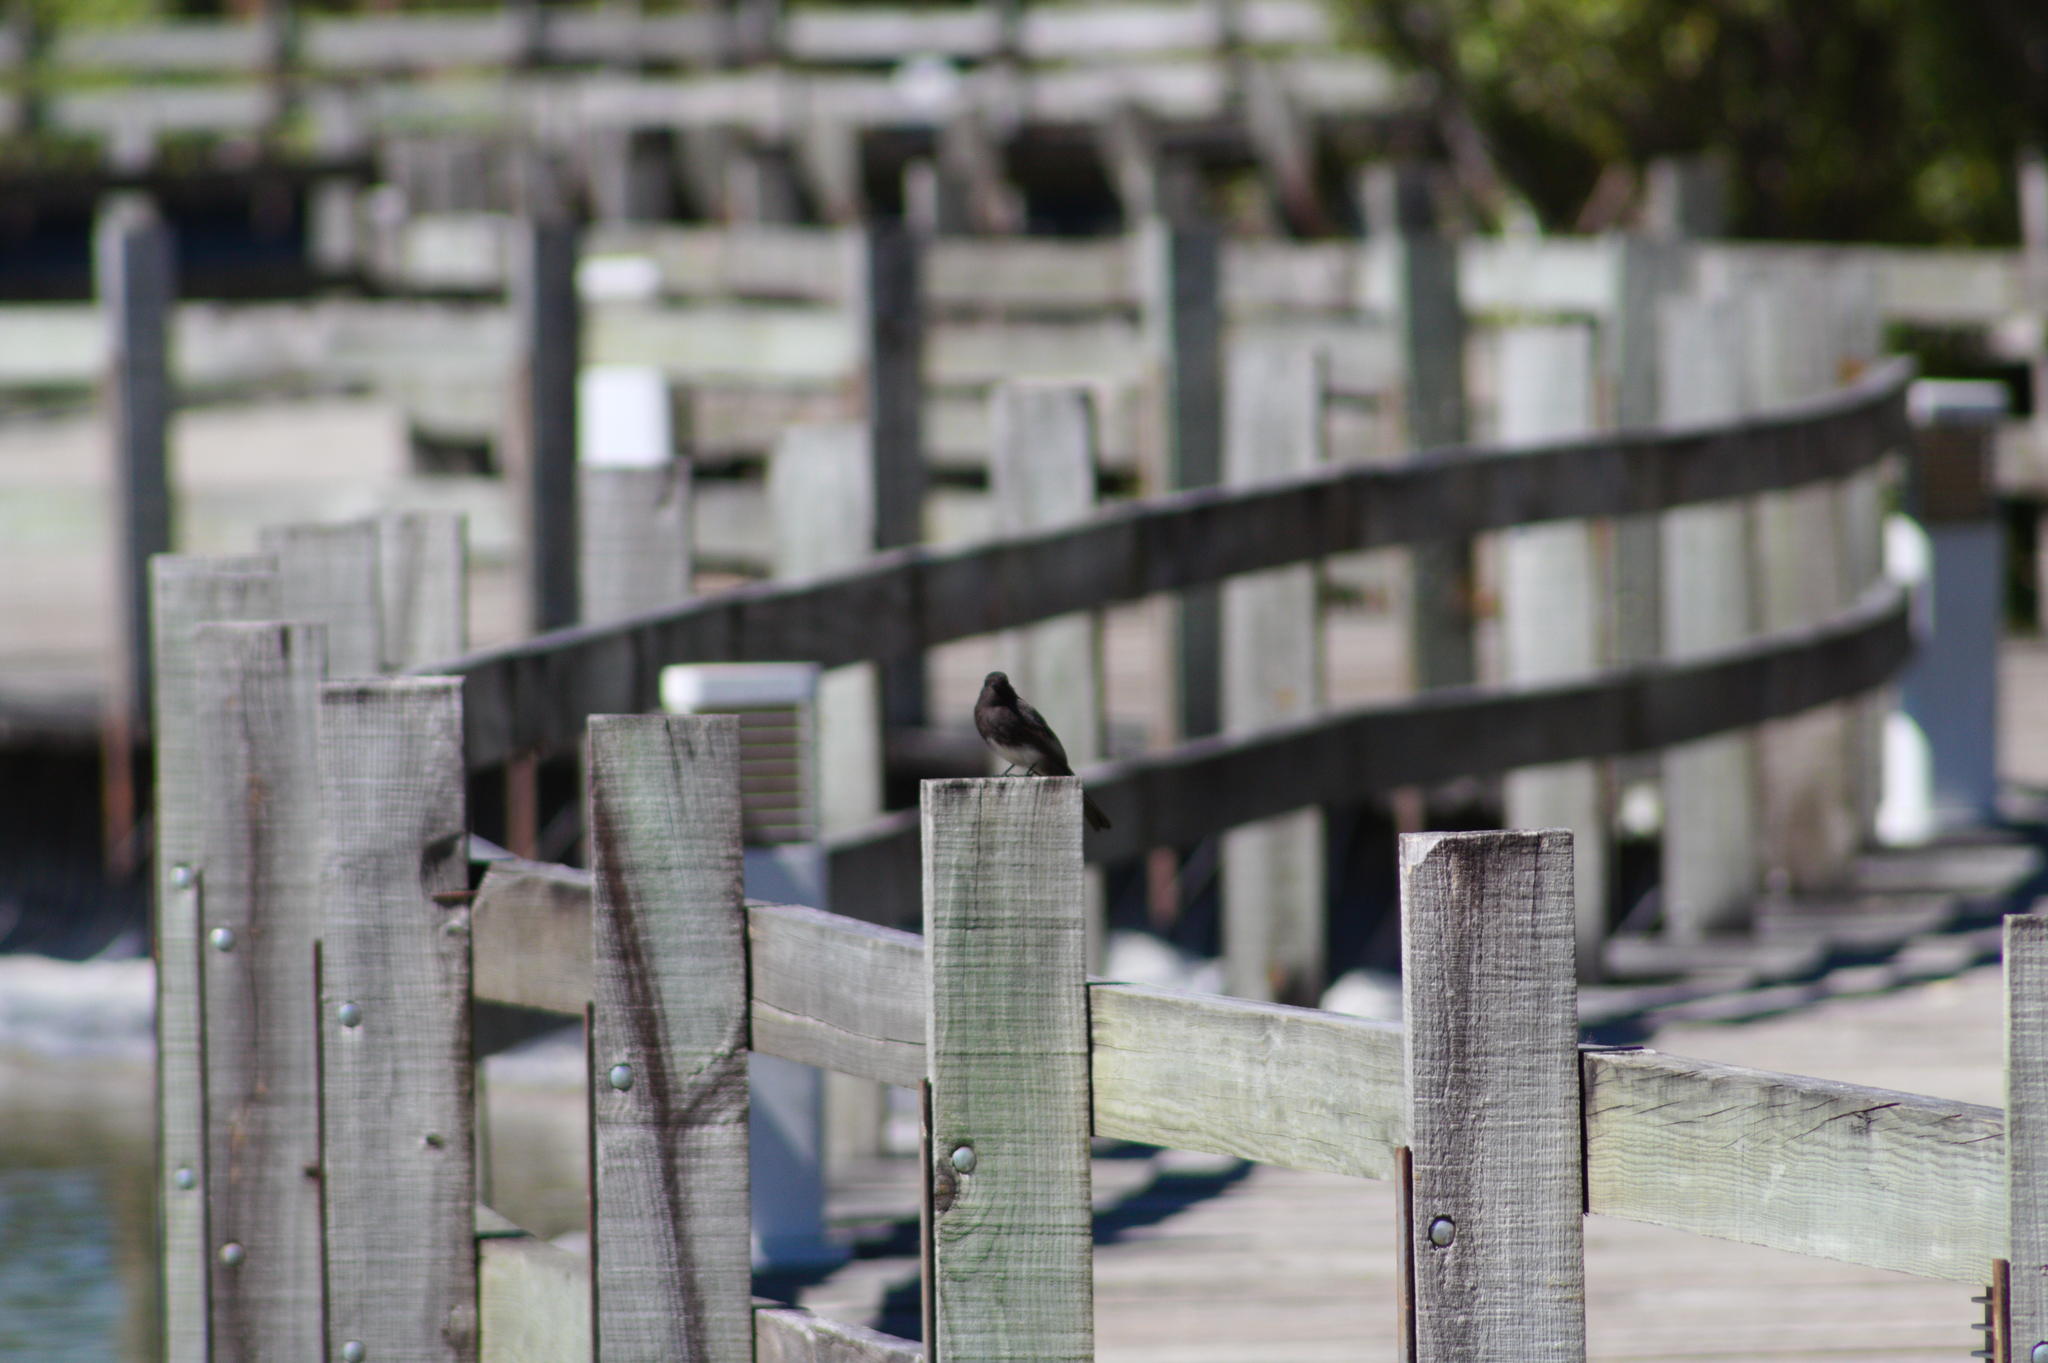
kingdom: Animalia
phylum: Chordata
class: Aves
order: Passeriformes
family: Tyrannidae
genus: Sayornis
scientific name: Sayornis nigricans
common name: Black phoebe
